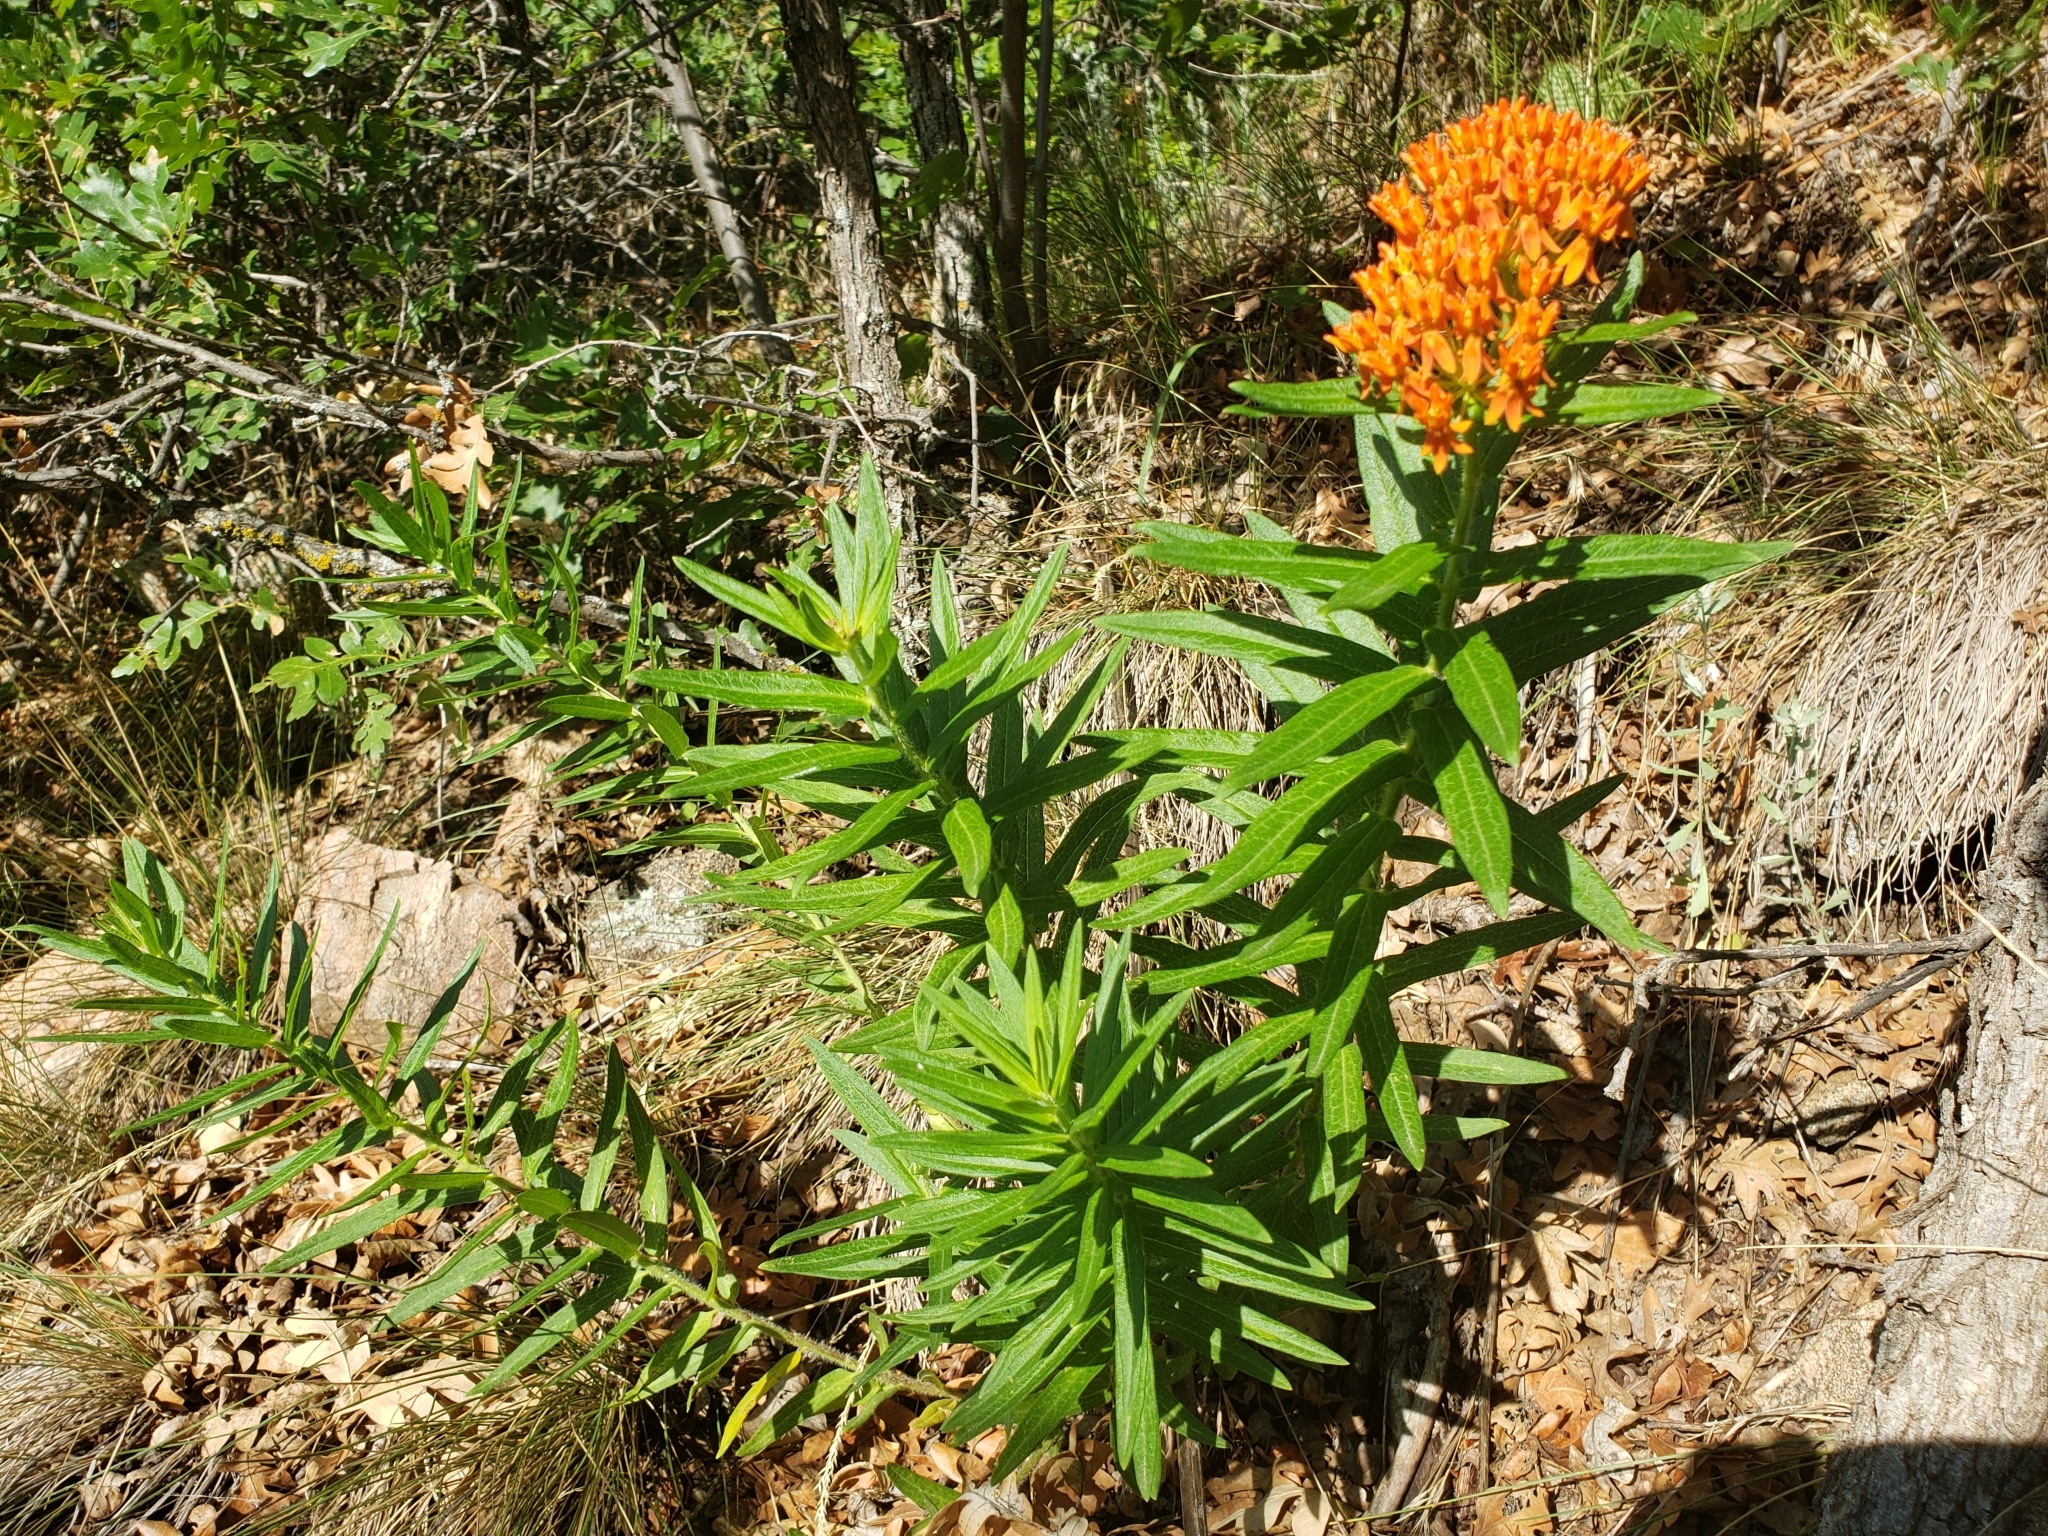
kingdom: Plantae
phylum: Tracheophyta
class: Magnoliopsida
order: Gentianales
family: Apocynaceae
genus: Asclepias
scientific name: Asclepias tuberosa
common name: Butterfly milkweed
